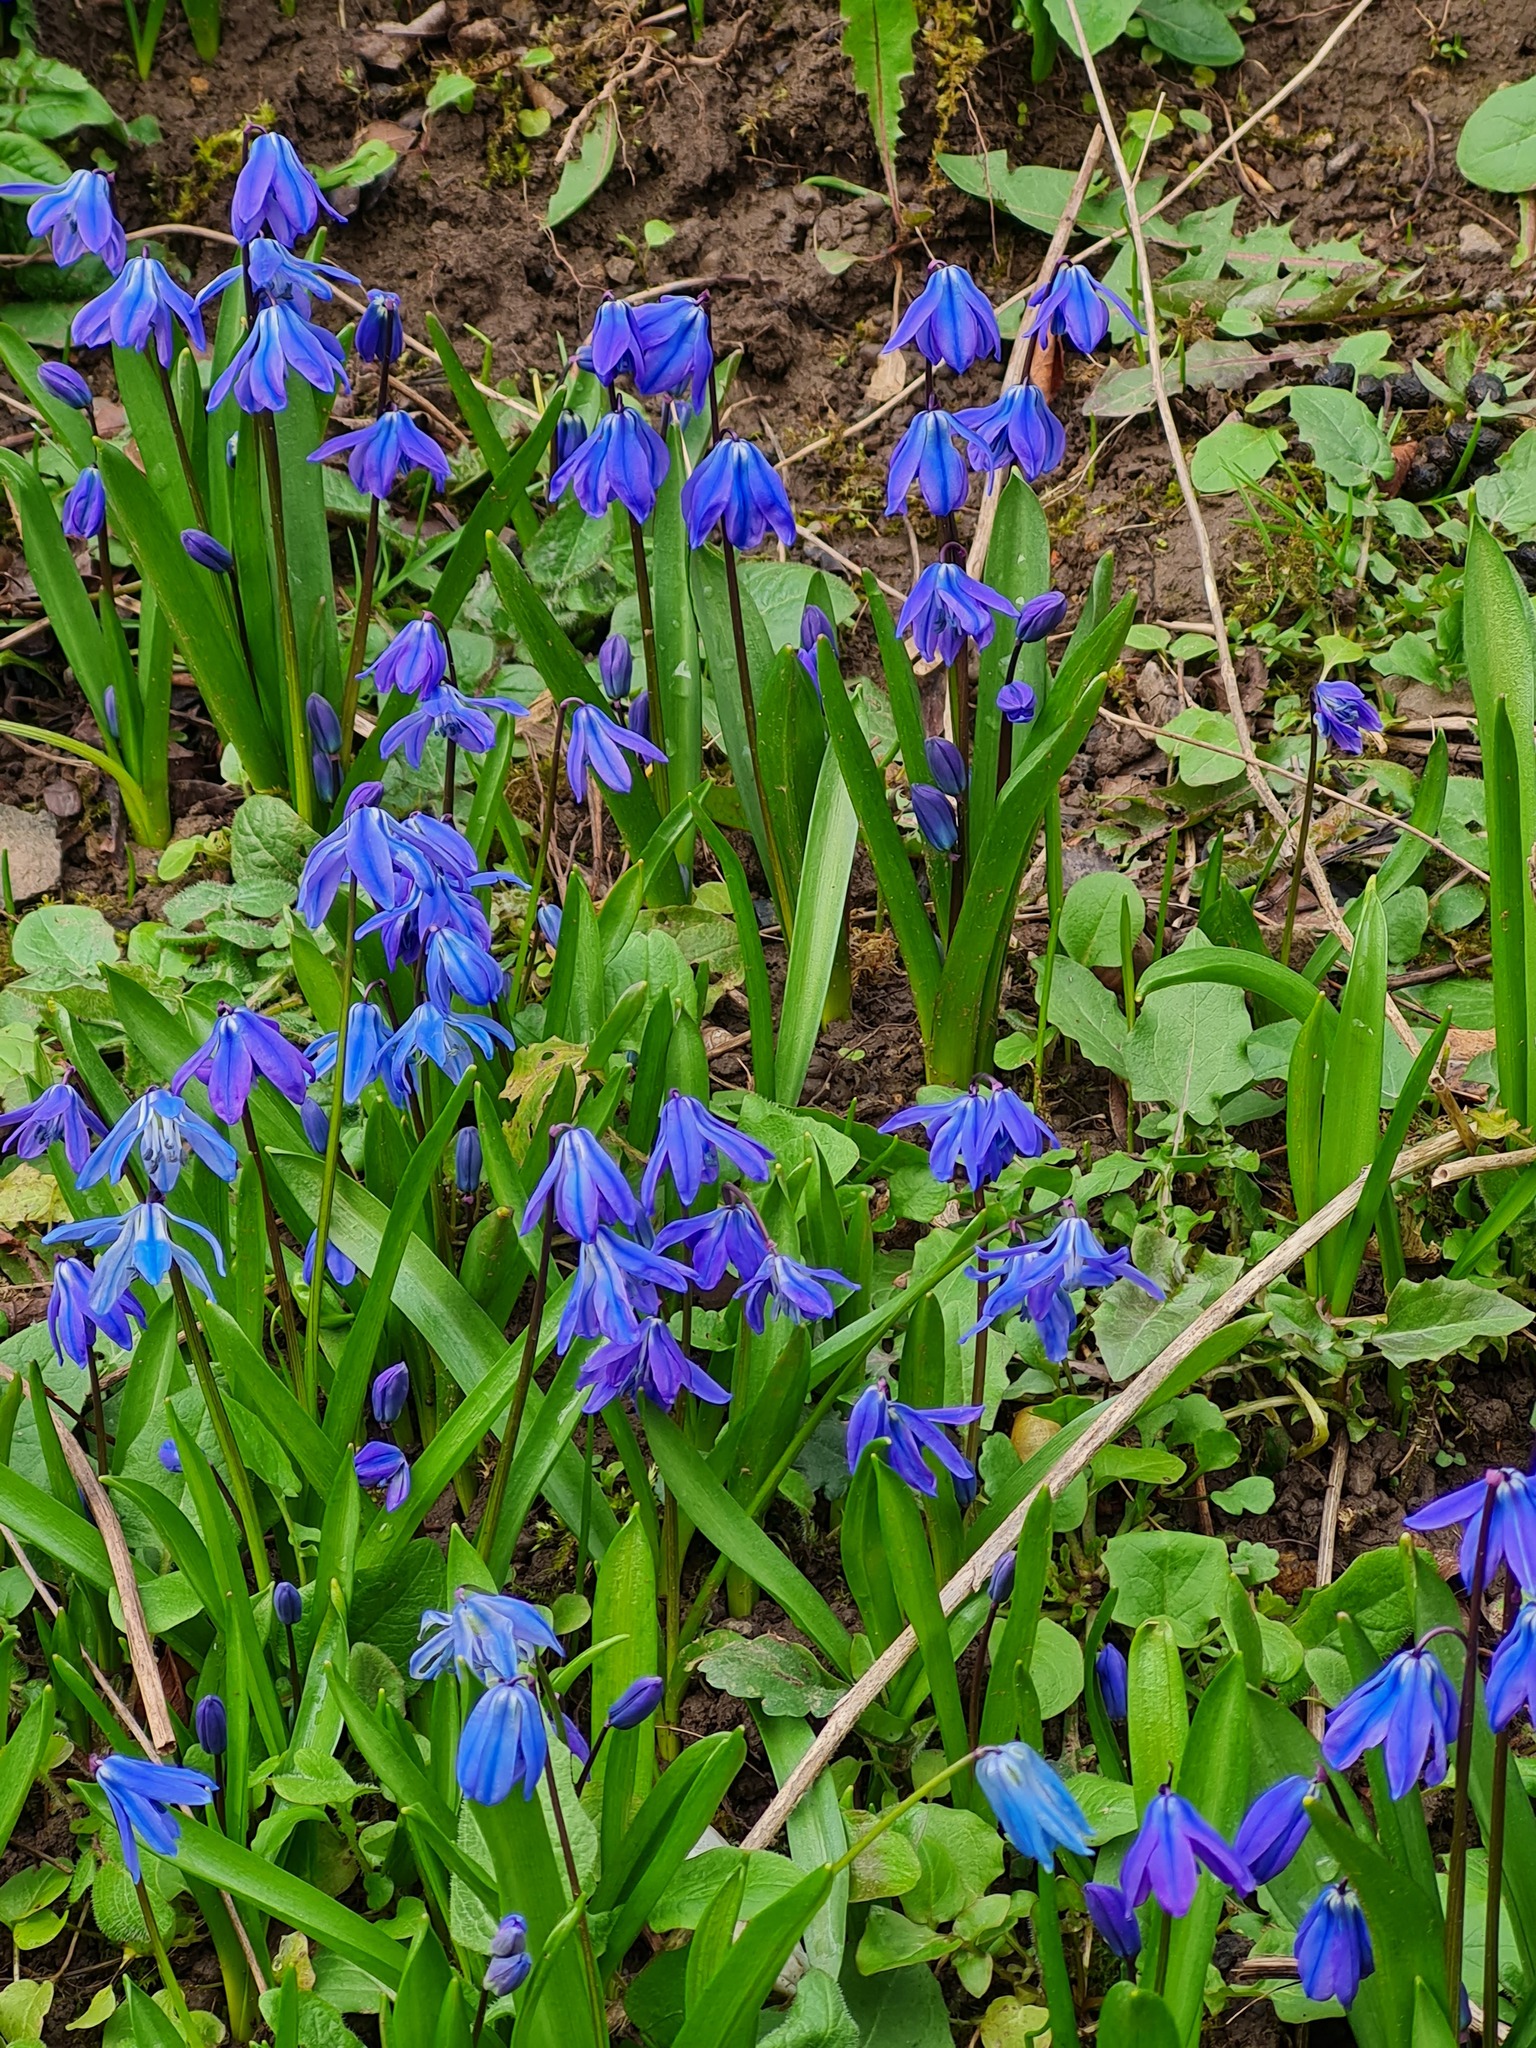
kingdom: Plantae
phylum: Tracheophyta
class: Liliopsida
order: Asparagales
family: Asparagaceae
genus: Scilla
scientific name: Scilla siberica
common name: Siberian squill
